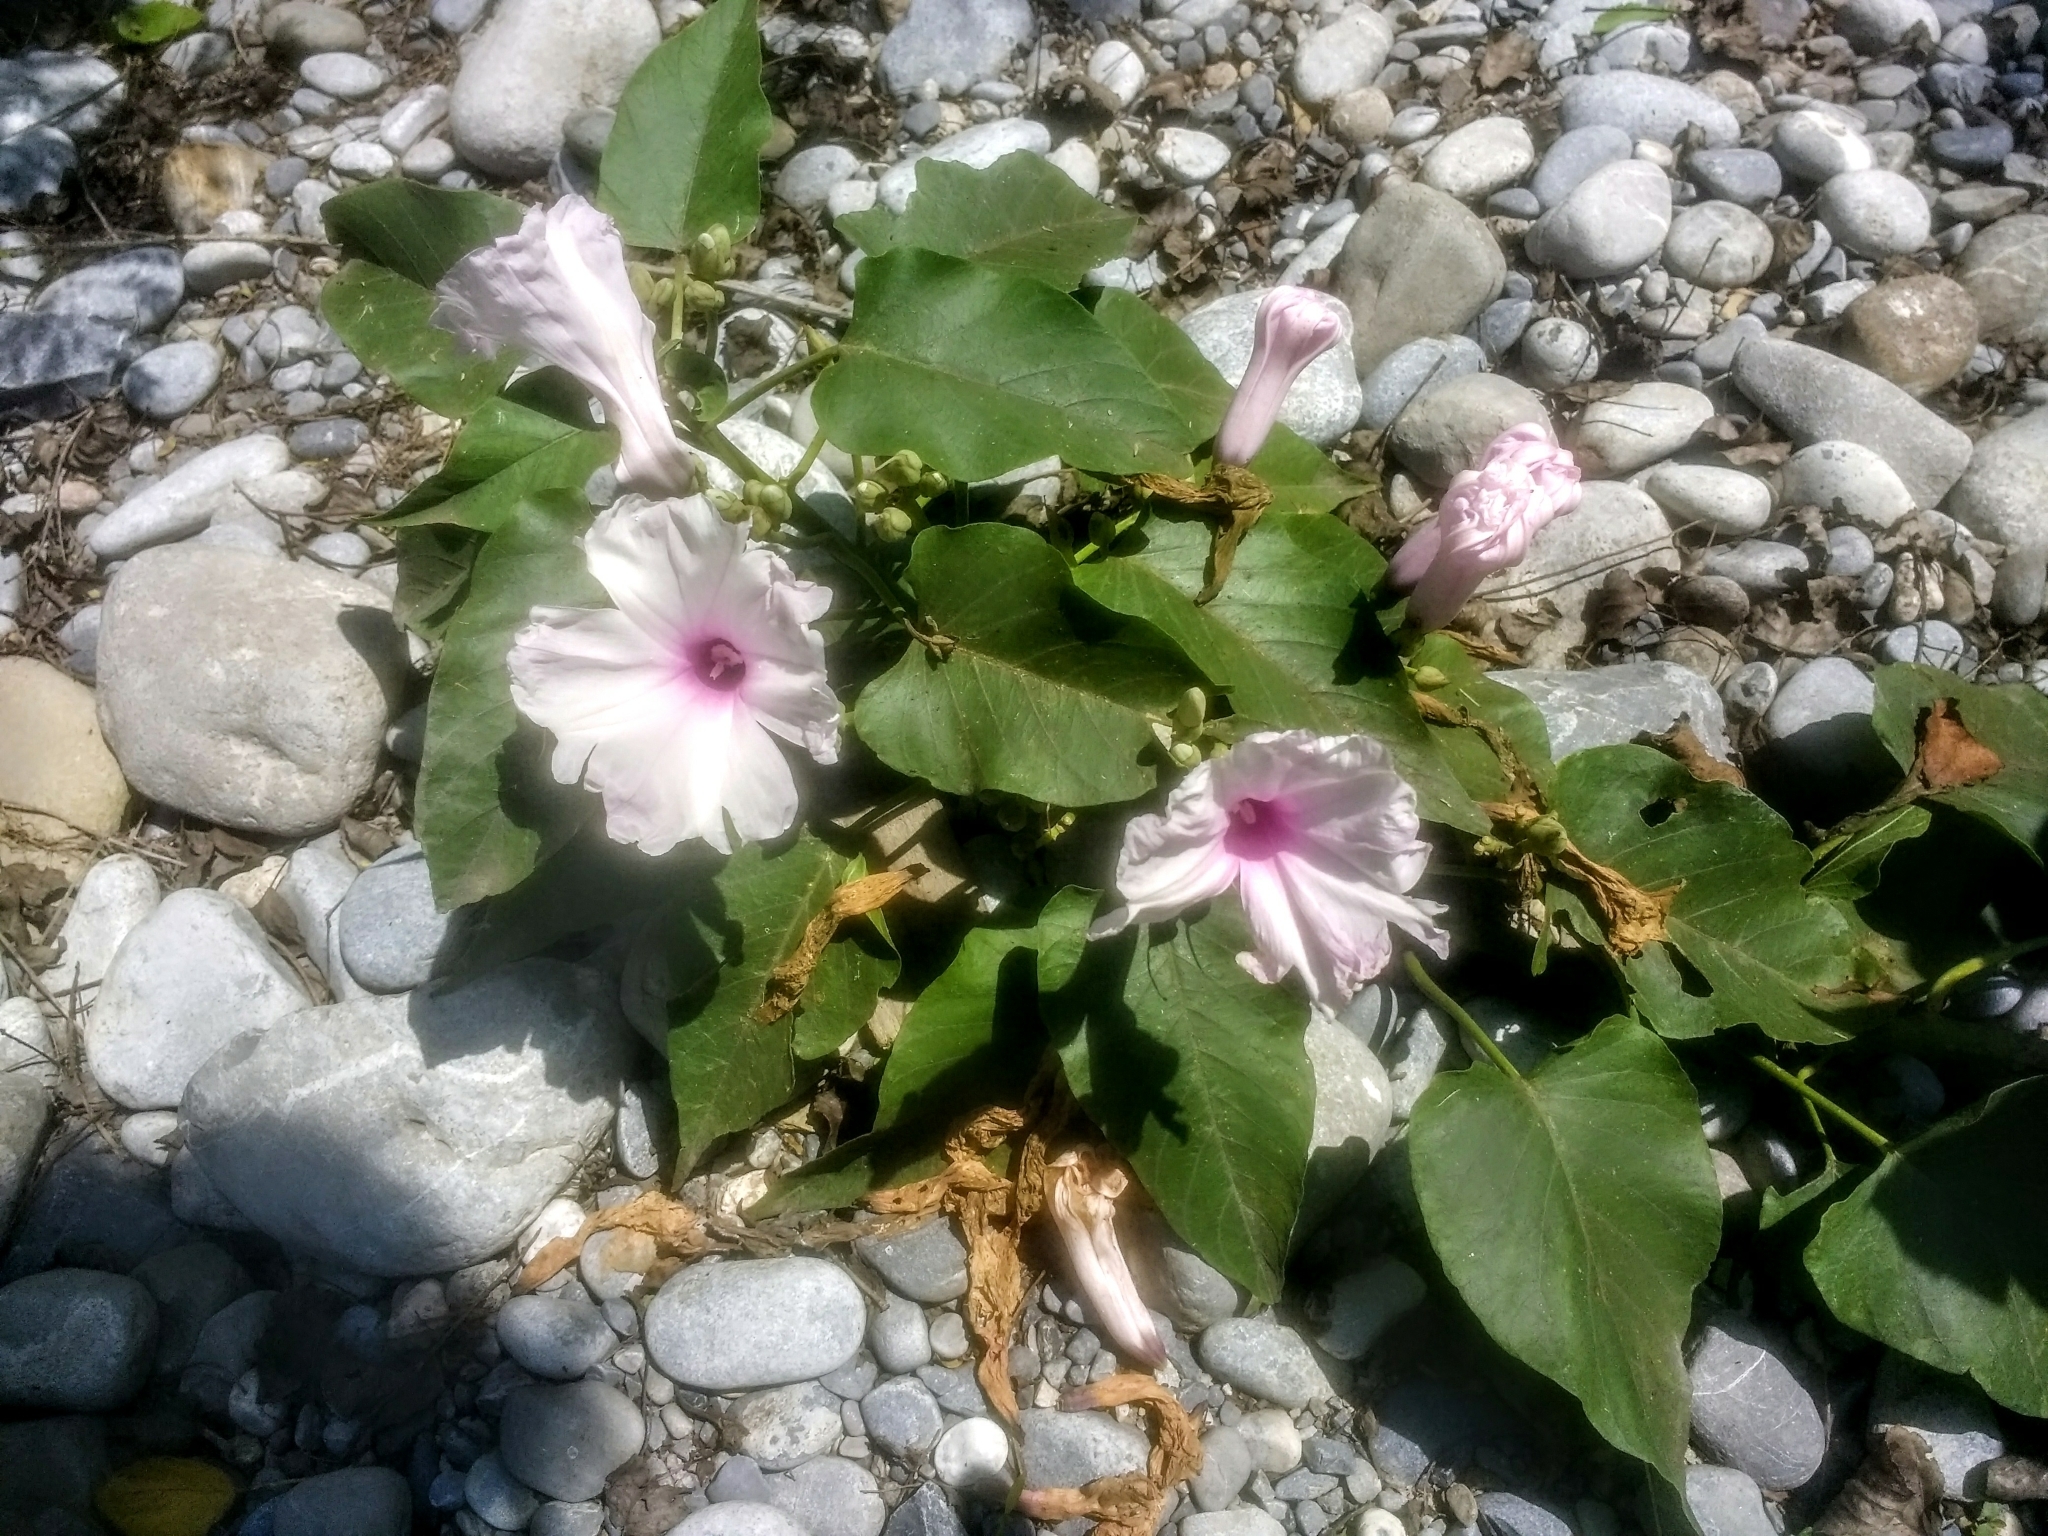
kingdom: Plantae
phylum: Tracheophyta
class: Magnoliopsida
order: Solanales
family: Convolvulaceae
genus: Ipomoea
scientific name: Ipomoea carnea
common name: Morning-glory
